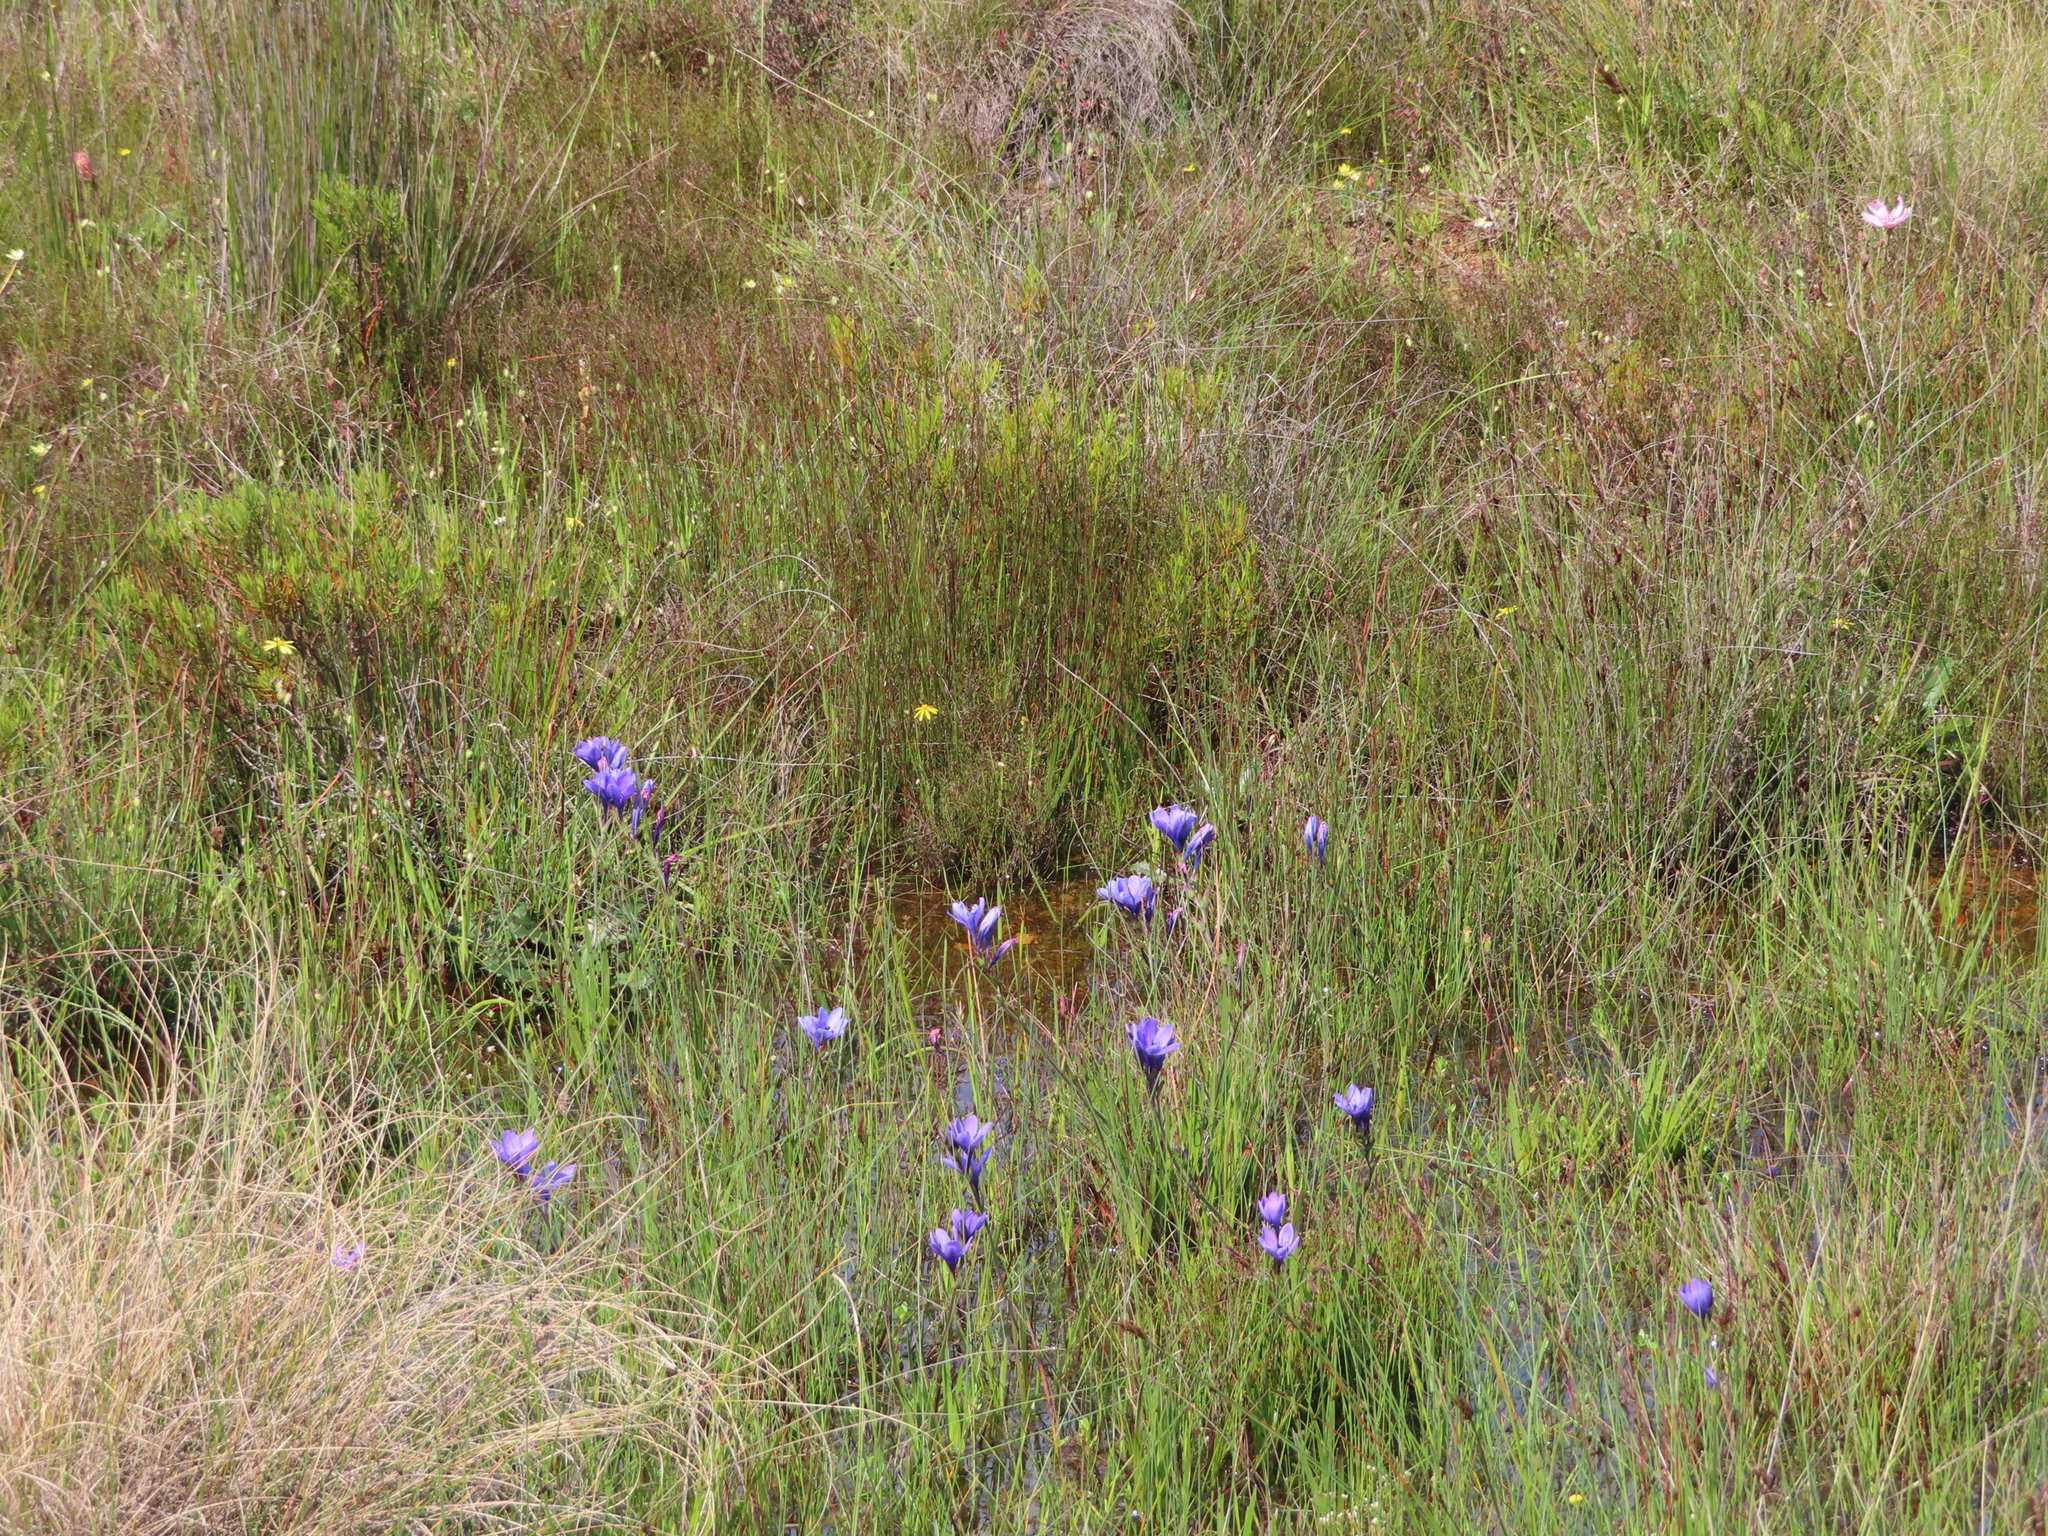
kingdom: Plantae
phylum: Tracheophyta
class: Liliopsida
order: Asparagales
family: Iridaceae
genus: Babiana
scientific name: Babiana angustifolia
